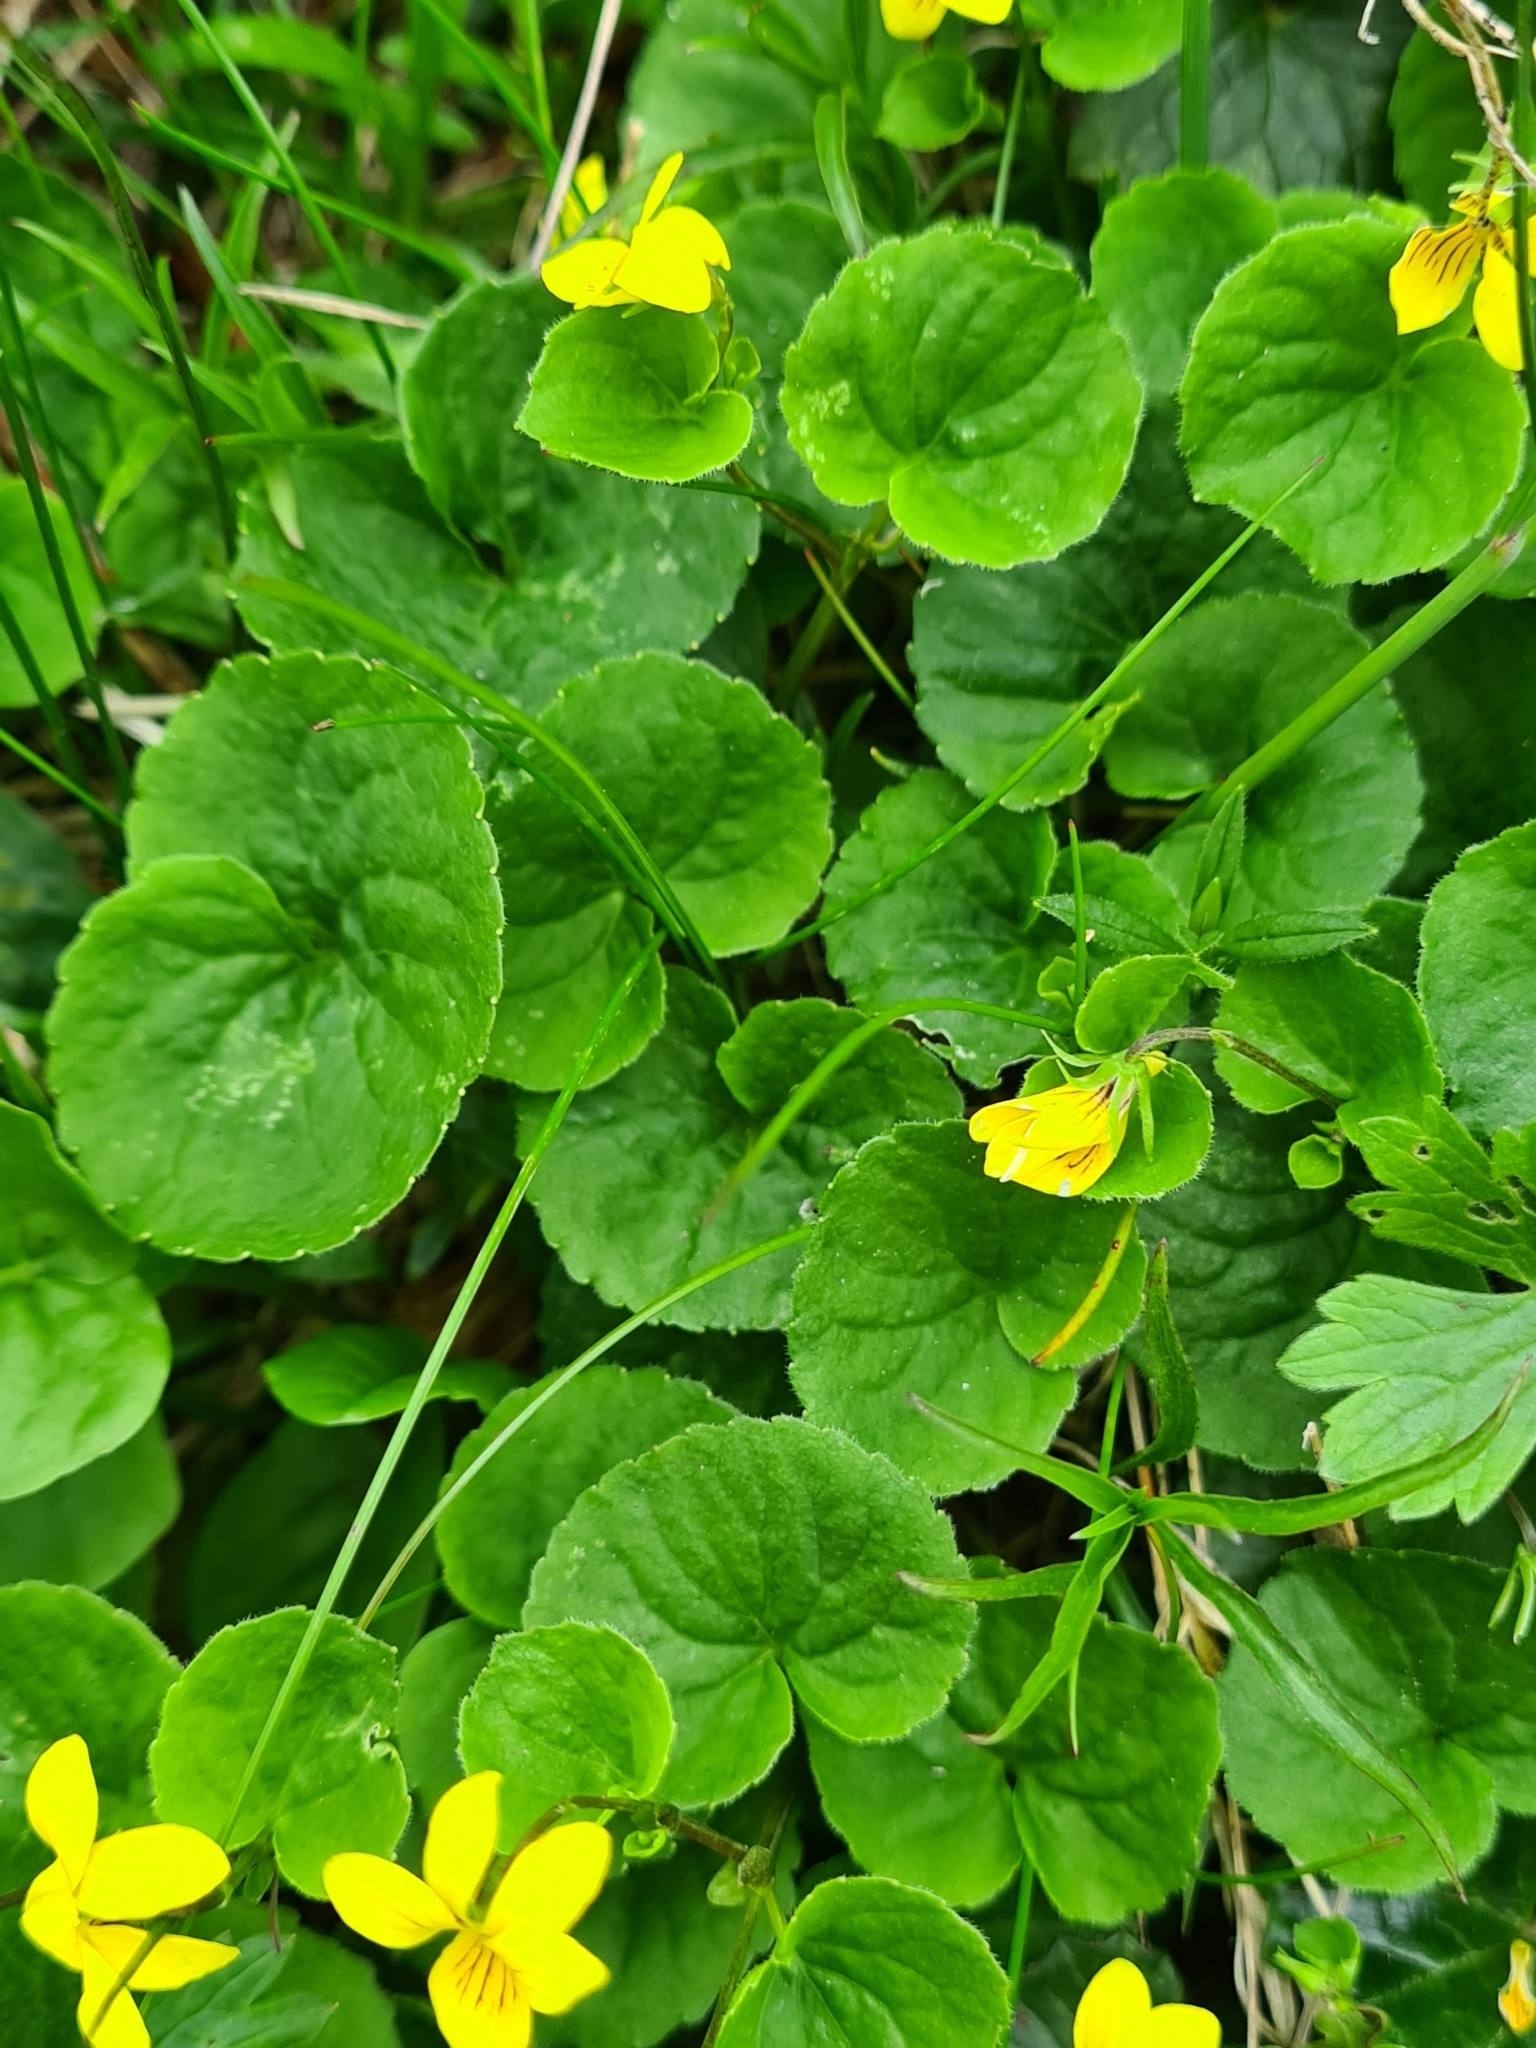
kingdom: Plantae
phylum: Tracheophyta
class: Magnoliopsida
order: Malpighiales
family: Violaceae
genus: Viola
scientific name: Viola biflora
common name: Alpine yellow violet
